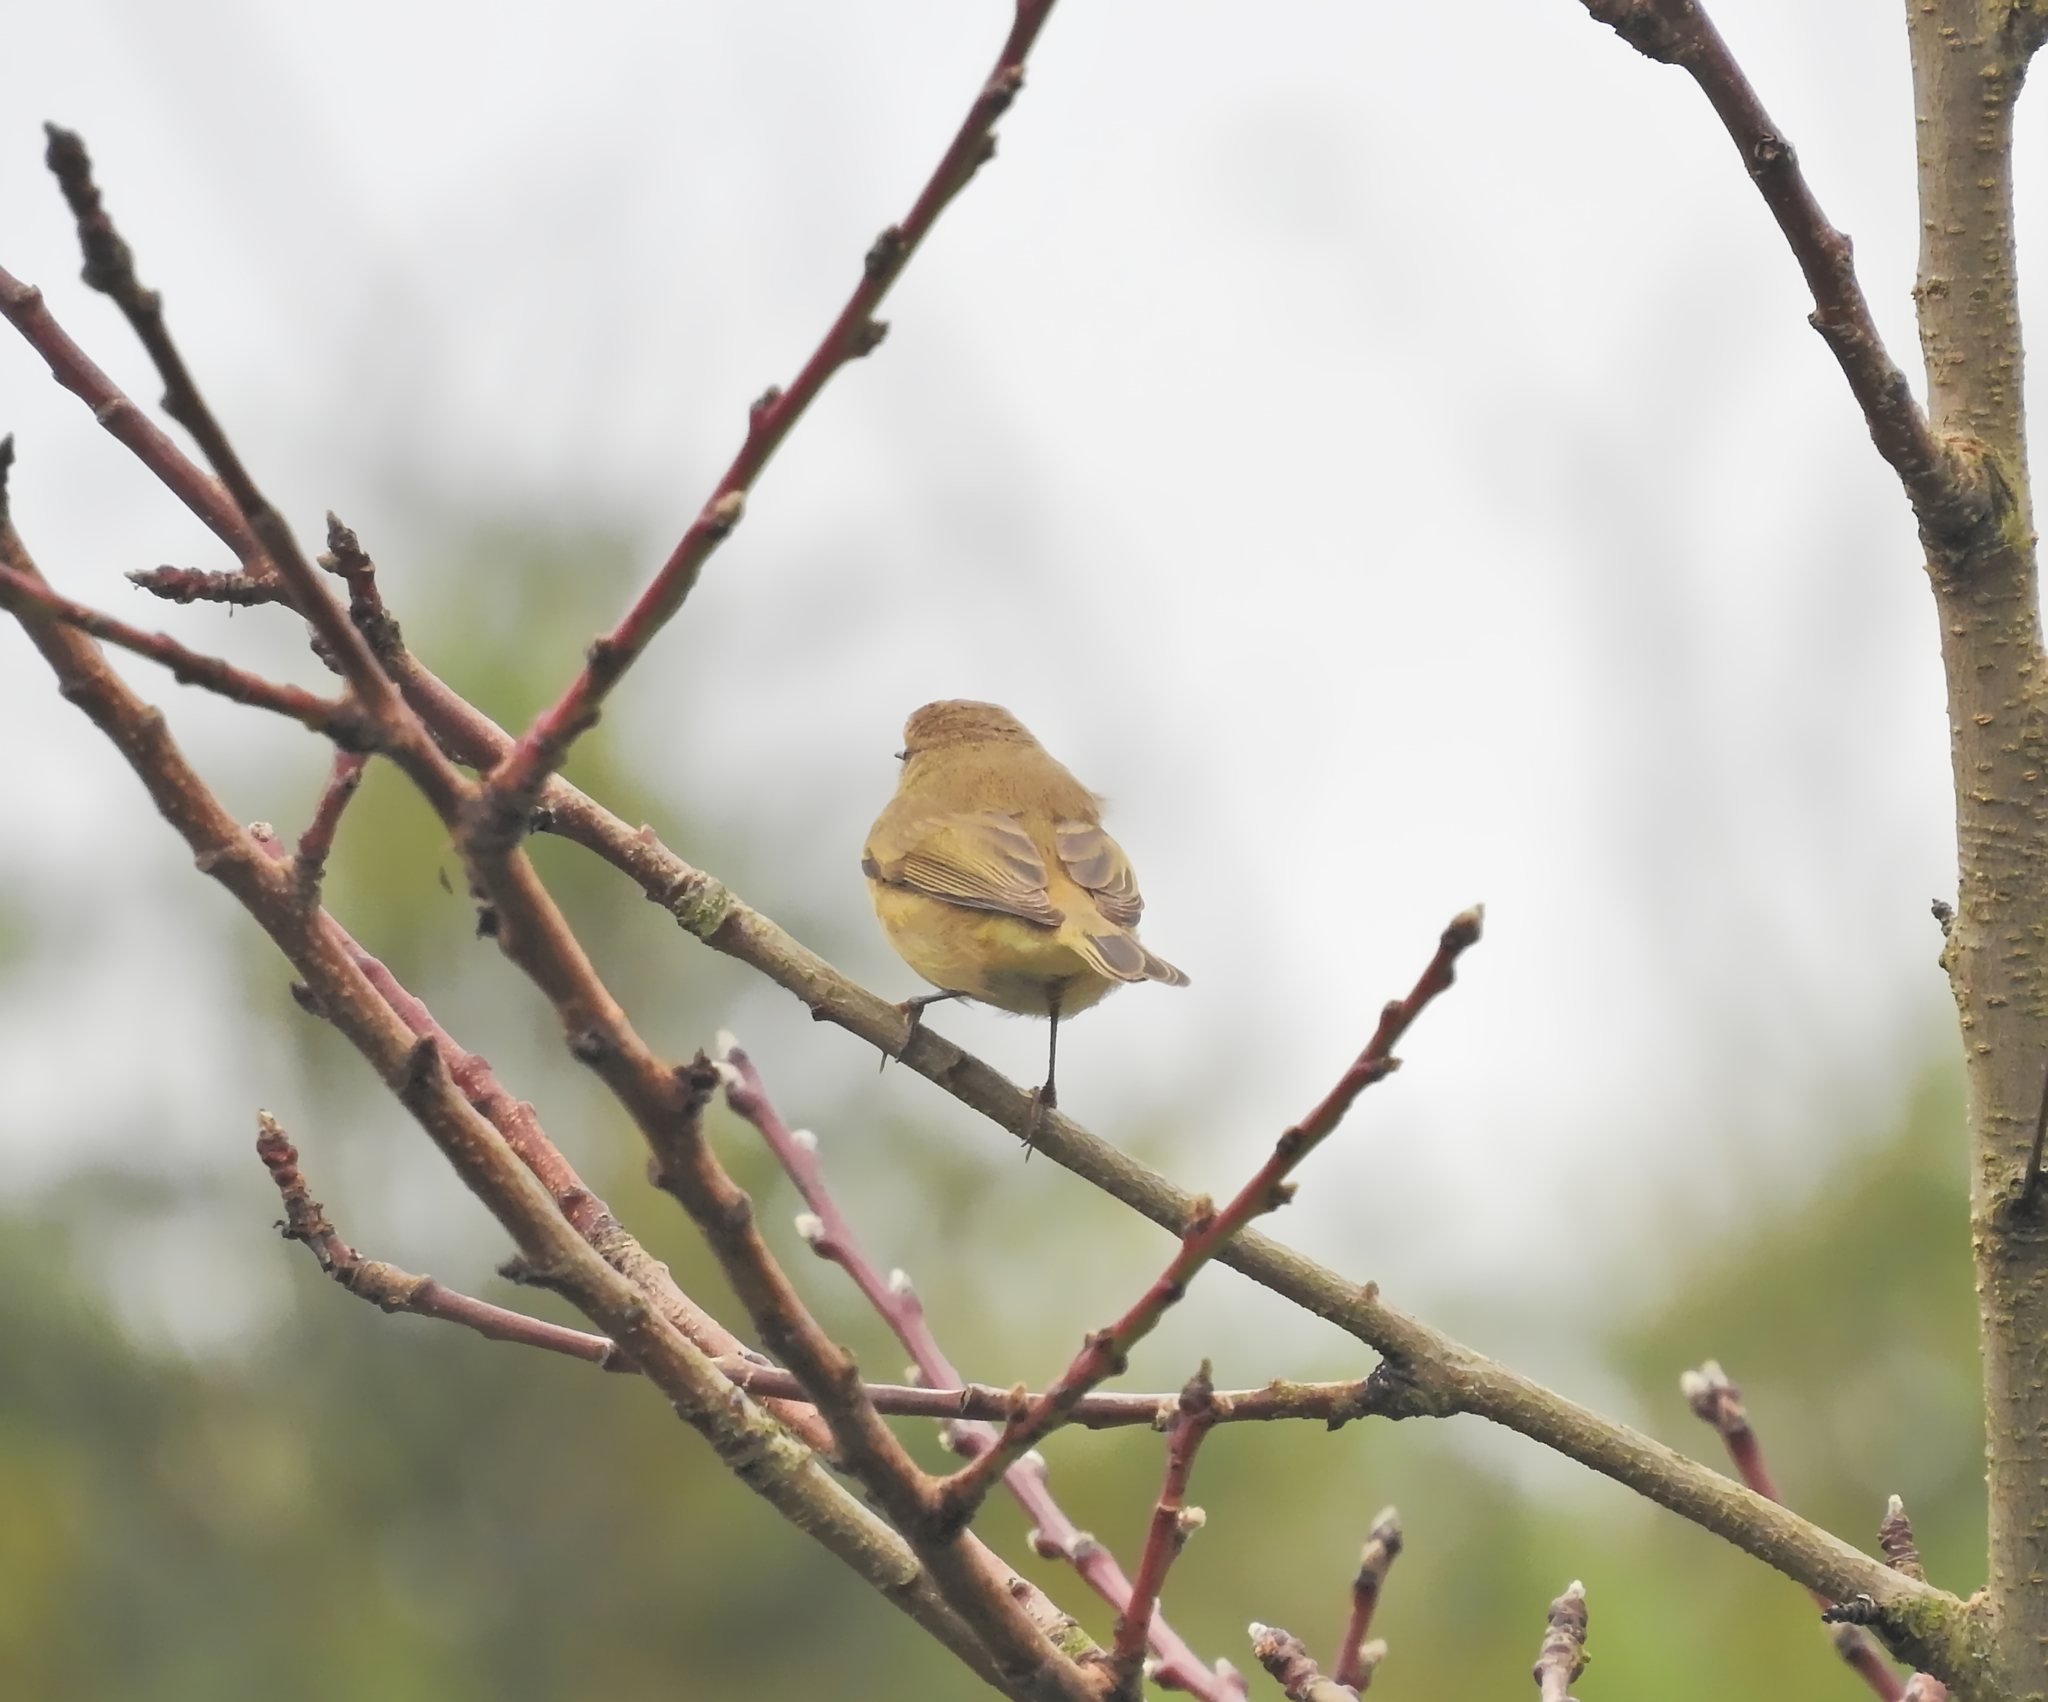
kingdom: Animalia
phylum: Chordata
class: Aves
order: Passeriformes
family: Phylloscopidae
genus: Phylloscopus
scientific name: Phylloscopus collybita
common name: Common chiffchaff
